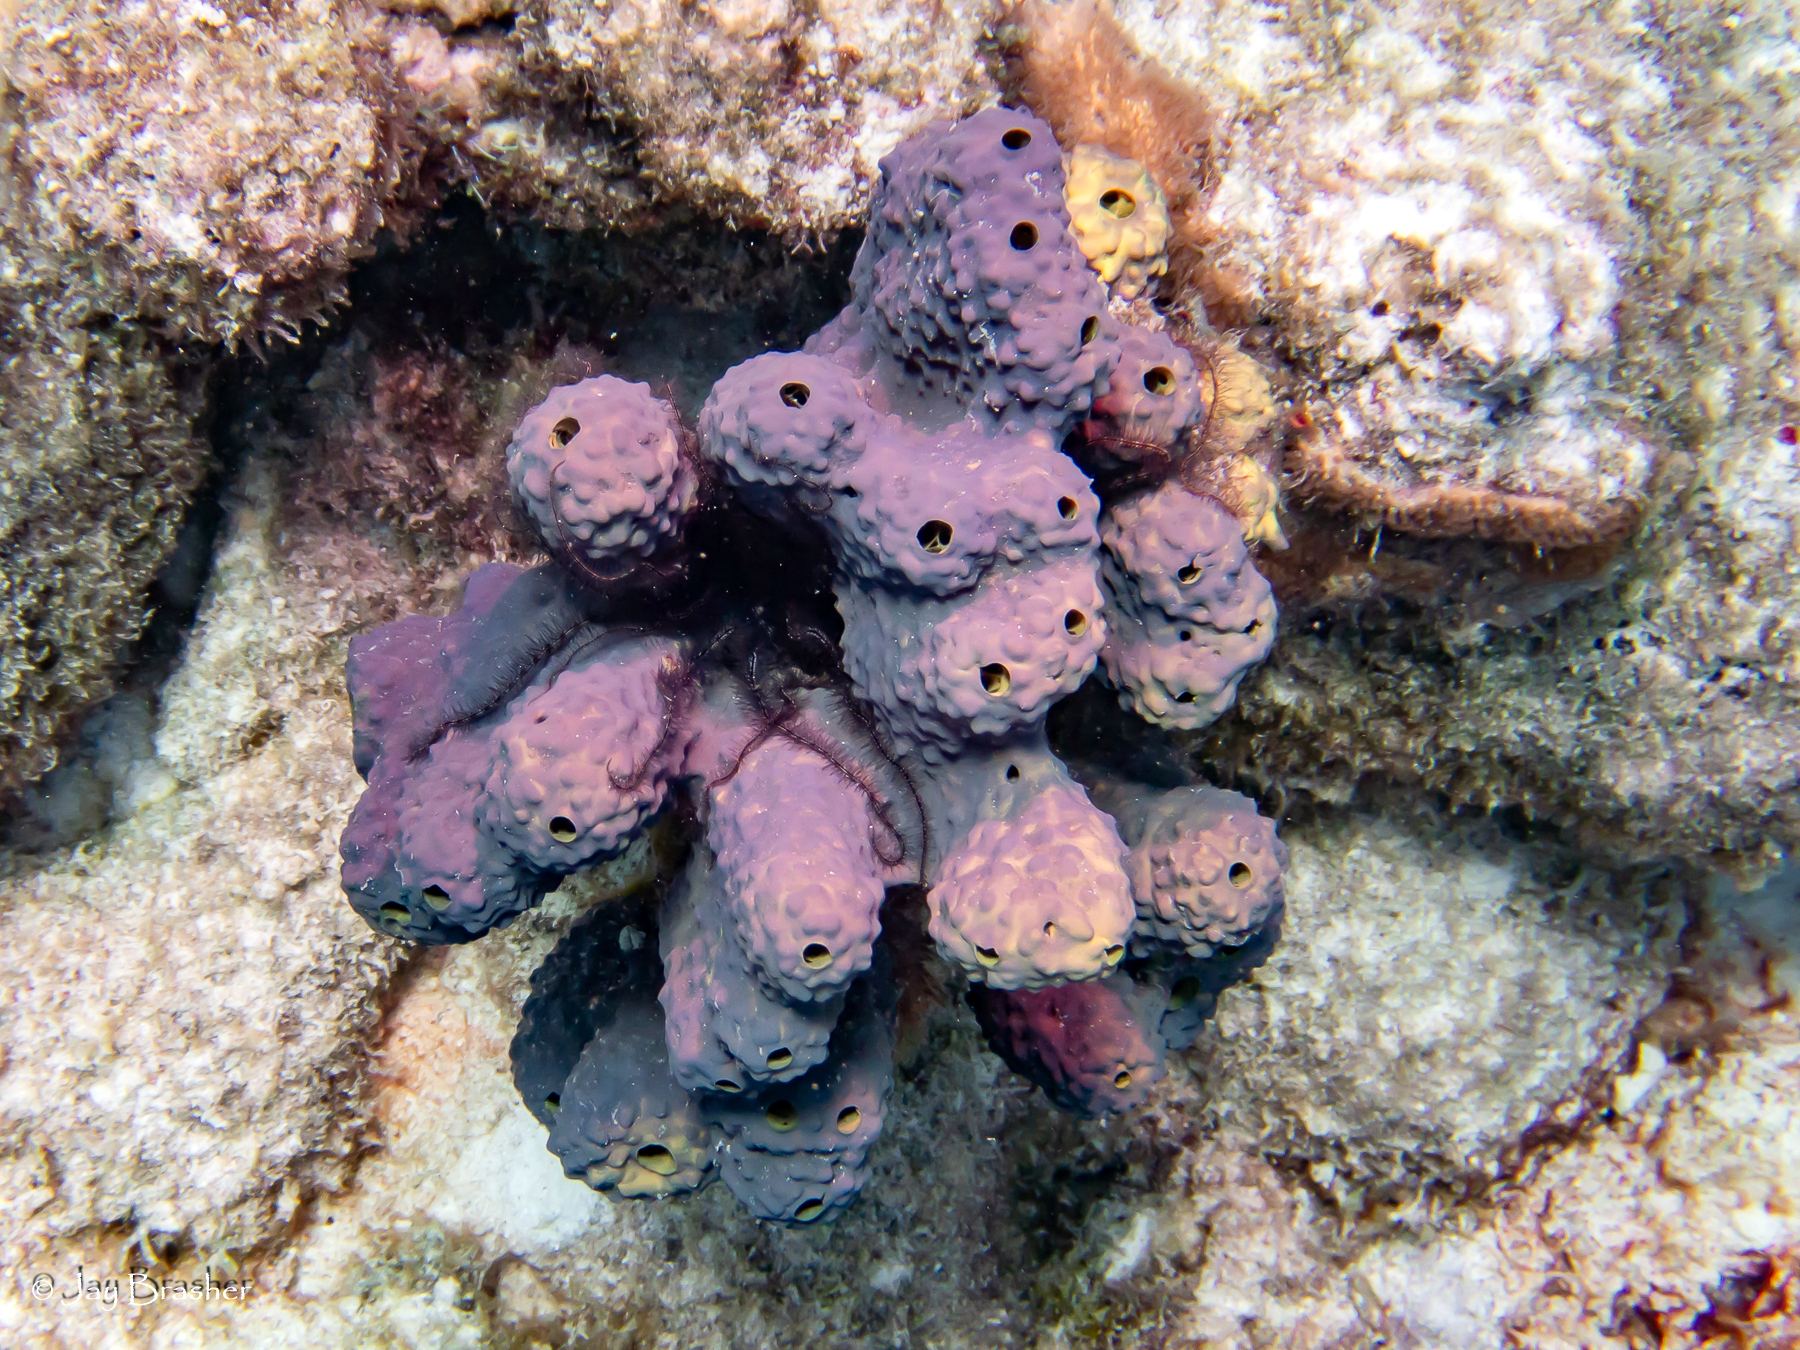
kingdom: Animalia
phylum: Porifera
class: Demospongiae
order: Verongiida
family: Aplysinidae
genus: Aiolochroia
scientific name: Aiolochroia crassa
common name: Branching tube sponge
